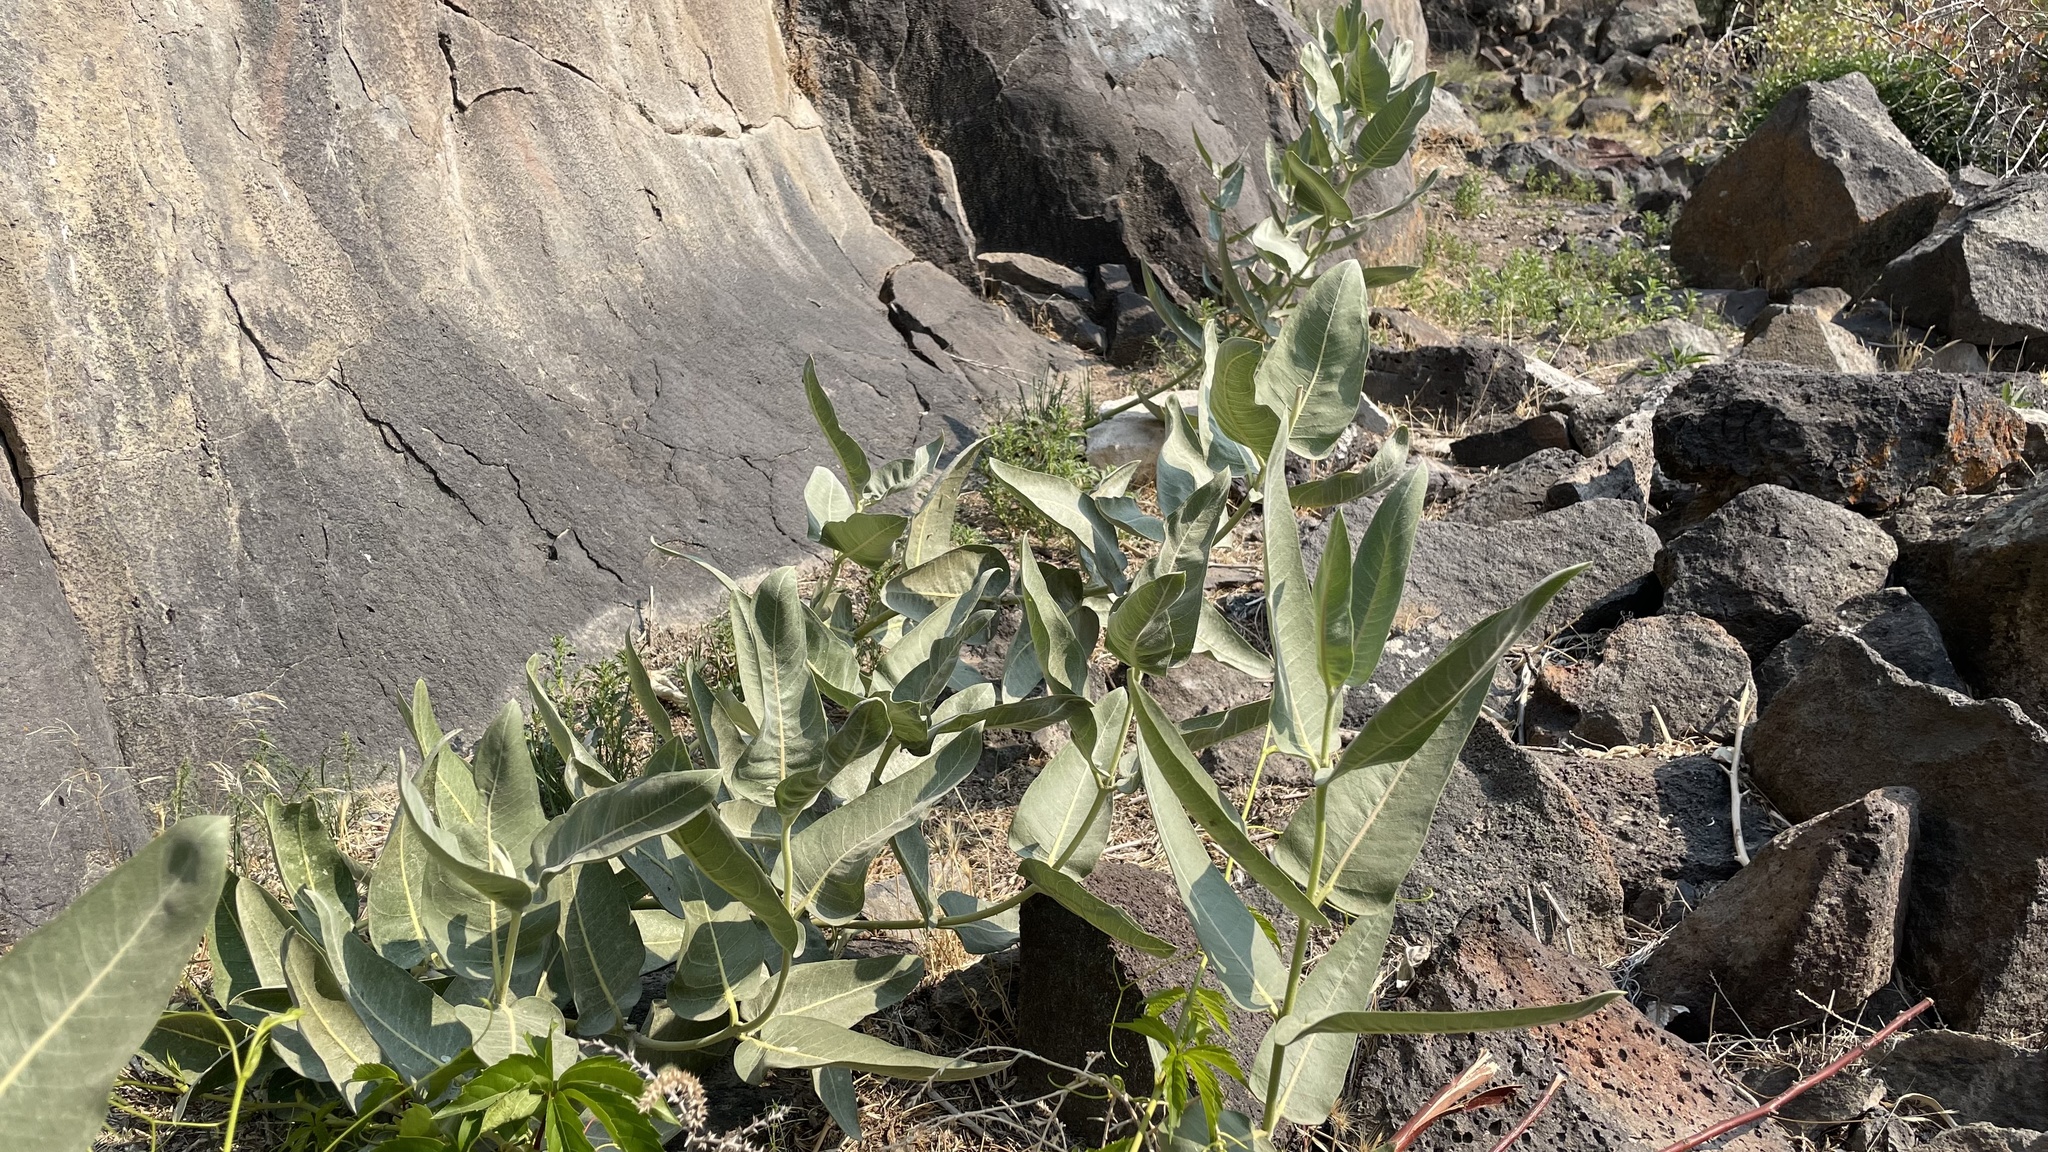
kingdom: Plantae
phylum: Tracheophyta
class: Magnoliopsida
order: Gentianales
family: Apocynaceae
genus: Asclepias
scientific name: Asclepias speciosa
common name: Showy milkweed
